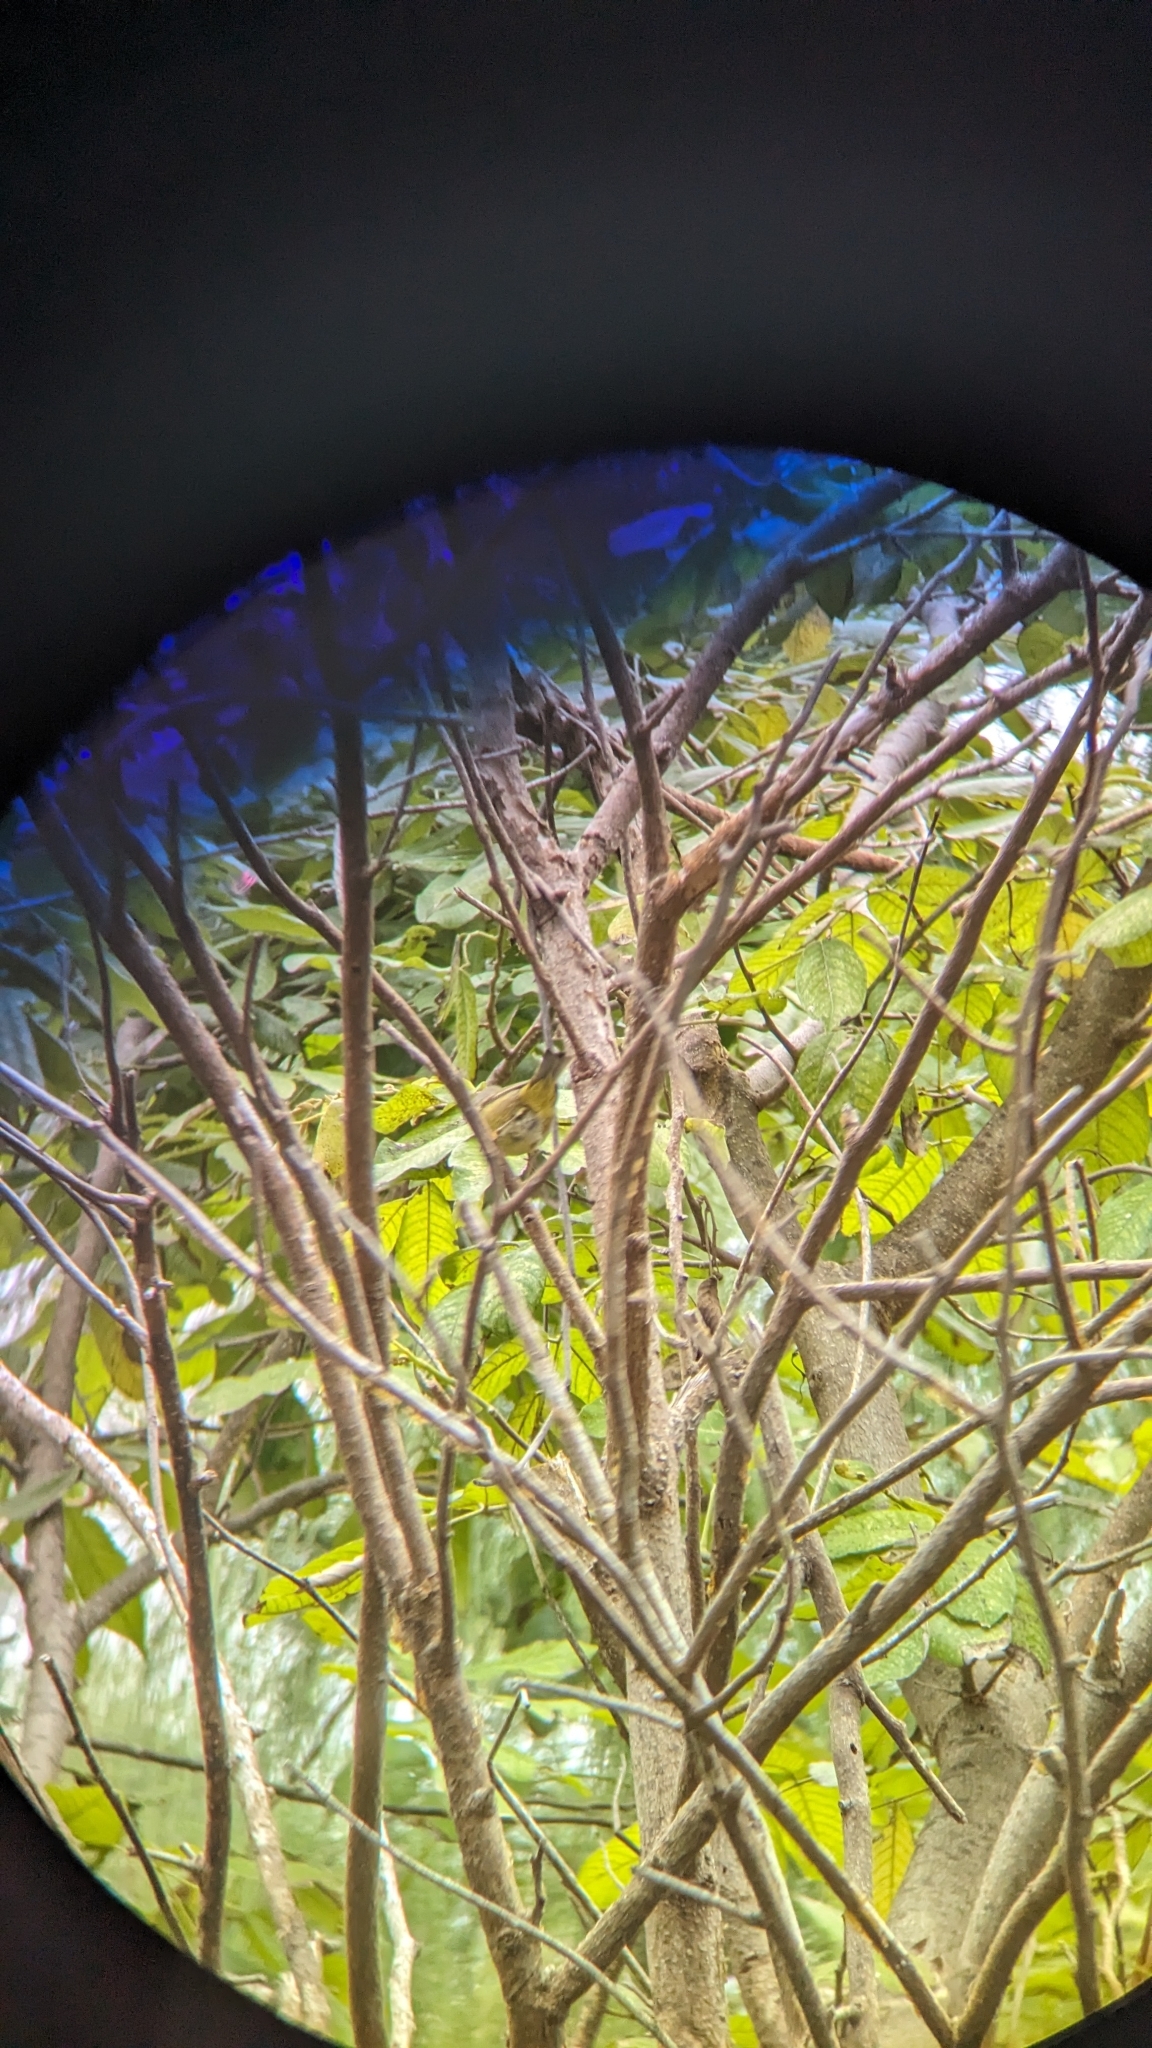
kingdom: Animalia
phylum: Chordata
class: Aves
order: Passeriformes
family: Parulidae
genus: Leiothlypis
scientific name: Leiothlypis celata
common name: Orange-crowned warbler
